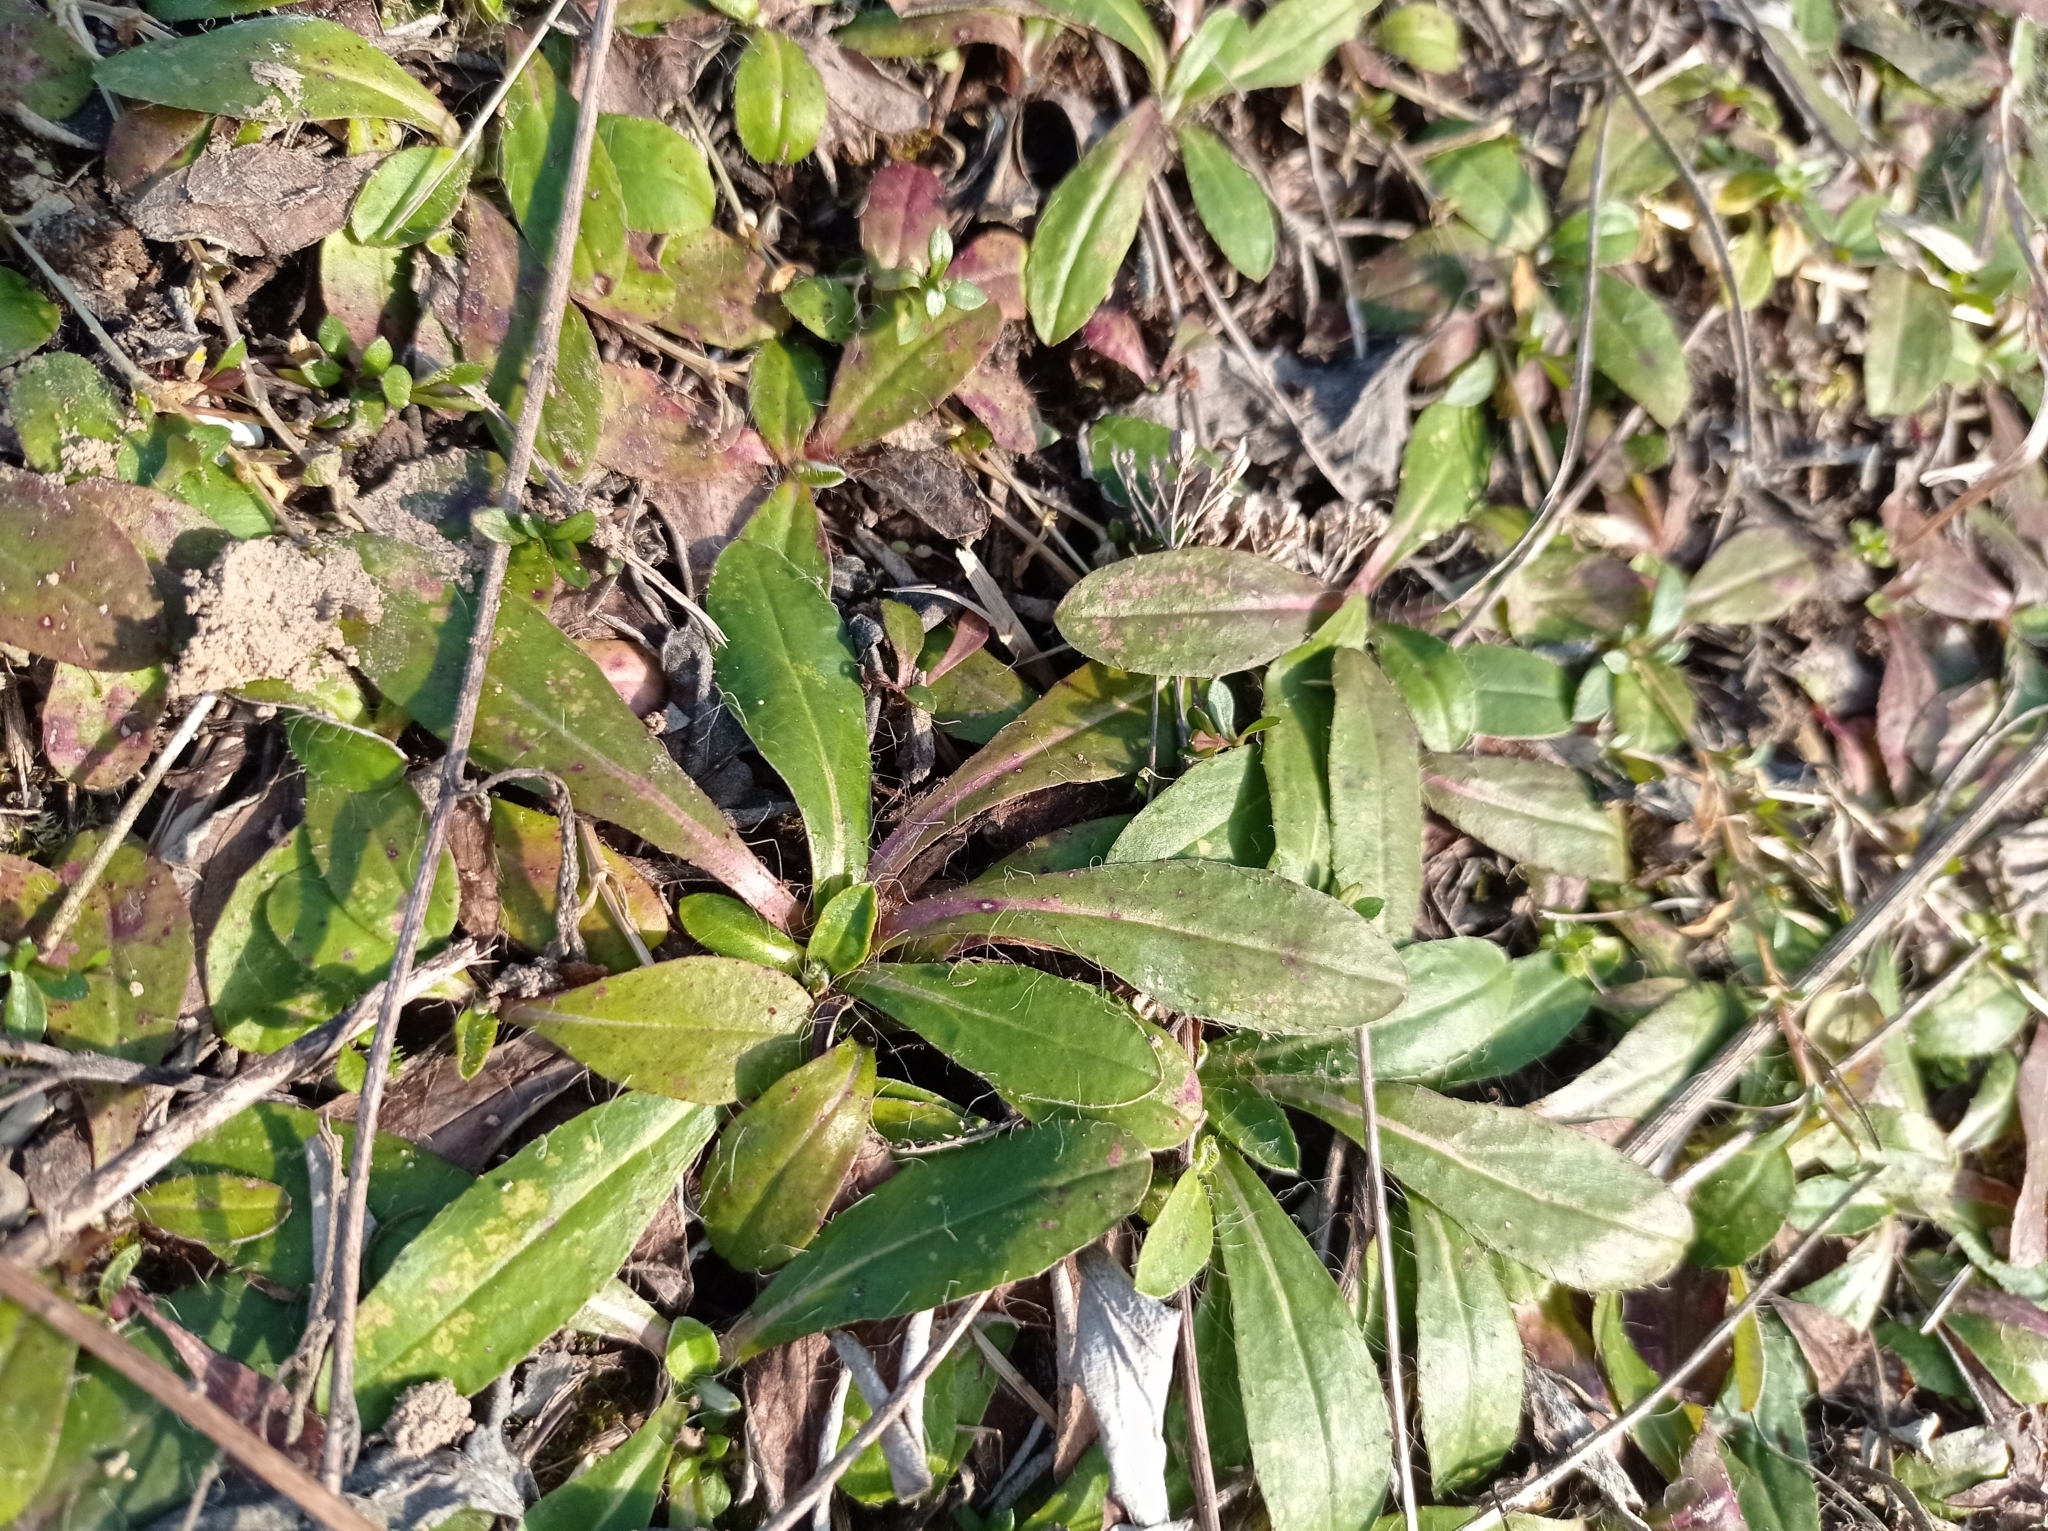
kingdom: Plantae
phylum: Tracheophyta
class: Magnoliopsida
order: Asterales
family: Asteraceae
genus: Pilosella
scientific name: Pilosella officinarum
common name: Mouse-ear hawkweed
